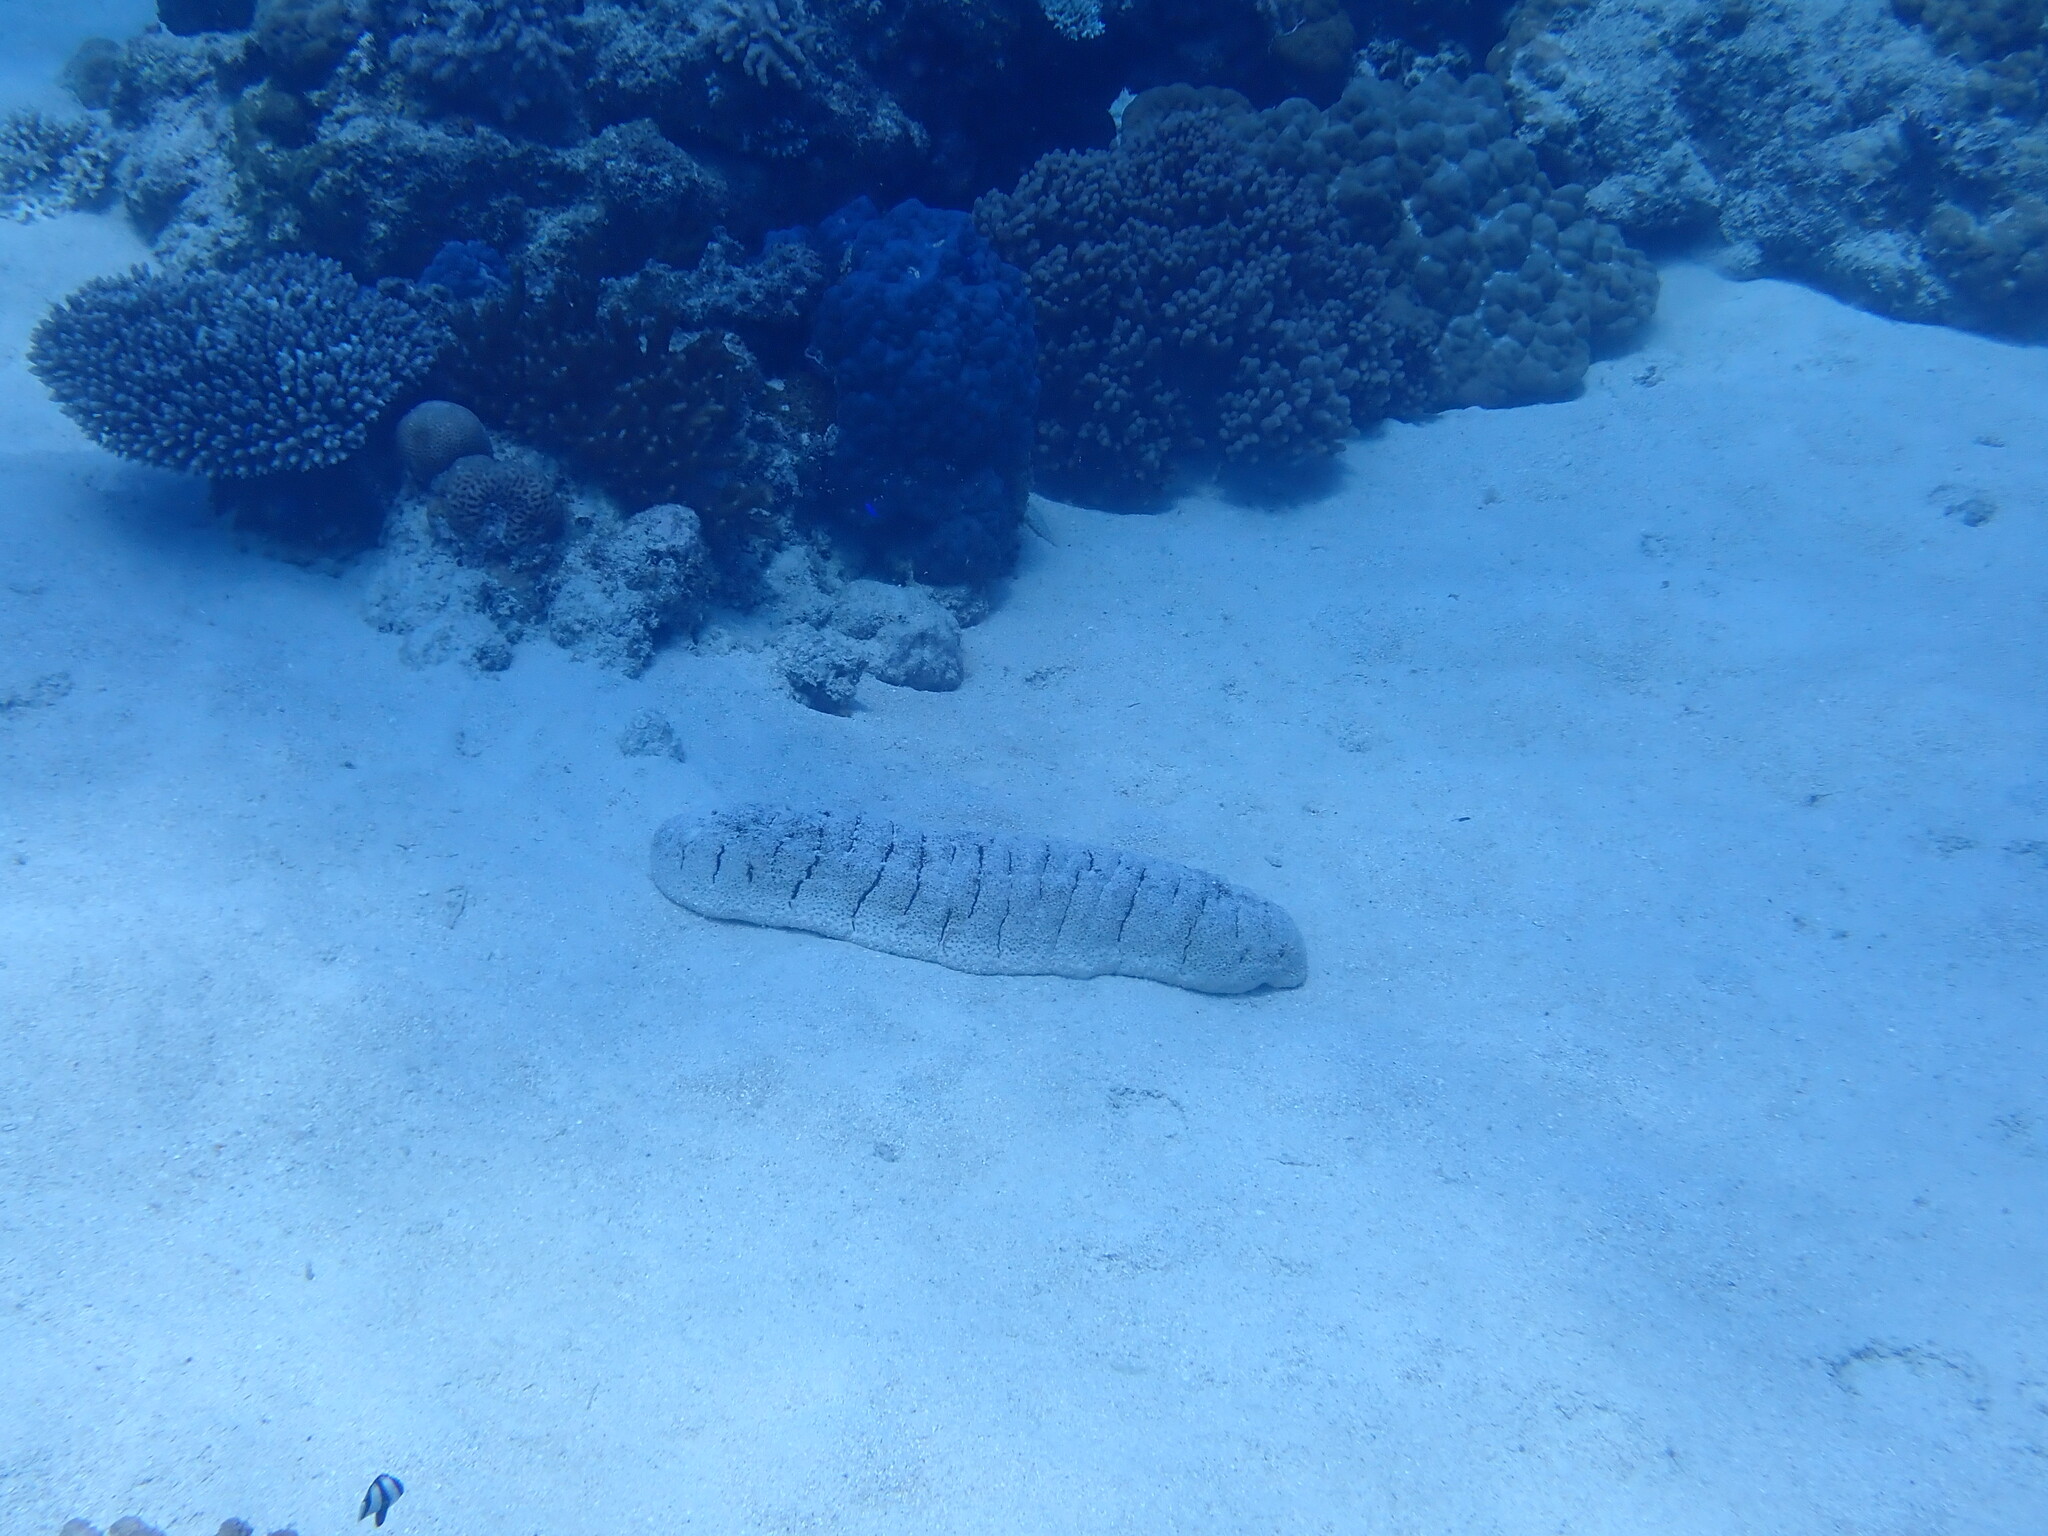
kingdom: Animalia
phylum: Echinodermata
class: Holothuroidea
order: Holothuriida
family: Holothuriidae
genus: Holothuria
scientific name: Holothuria fuscopunctata
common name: Elephant trunkfish
